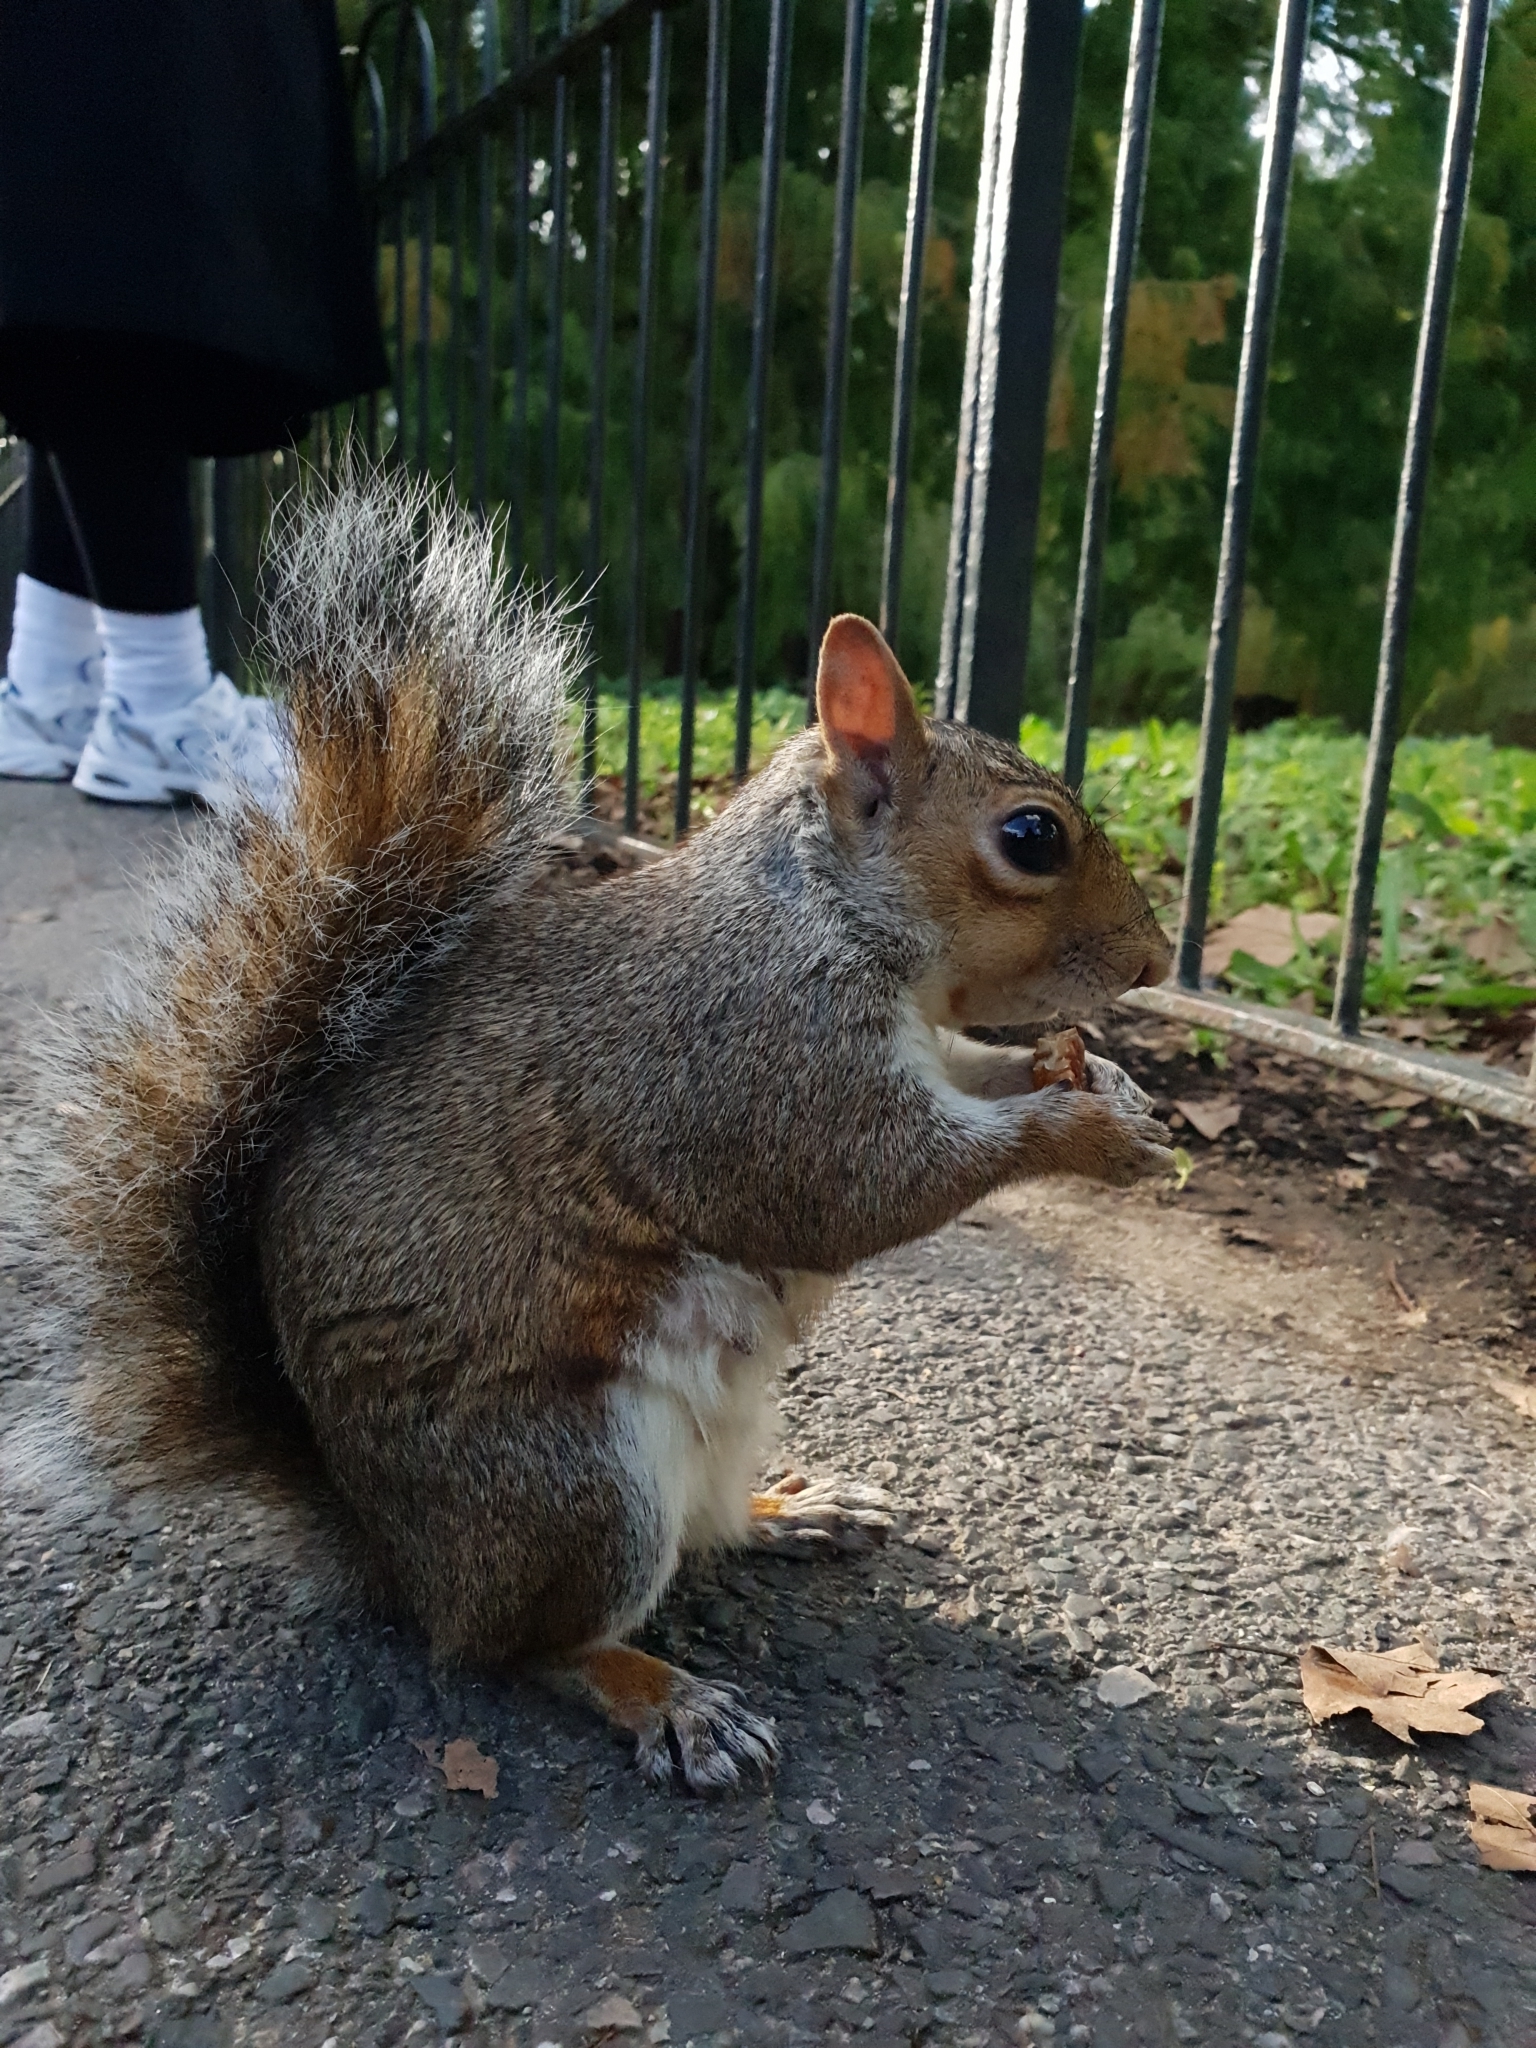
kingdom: Animalia
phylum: Chordata
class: Mammalia
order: Rodentia
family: Sciuridae
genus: Sciurus
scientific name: Sciurus carolinensis
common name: Eastern gray squirrel
